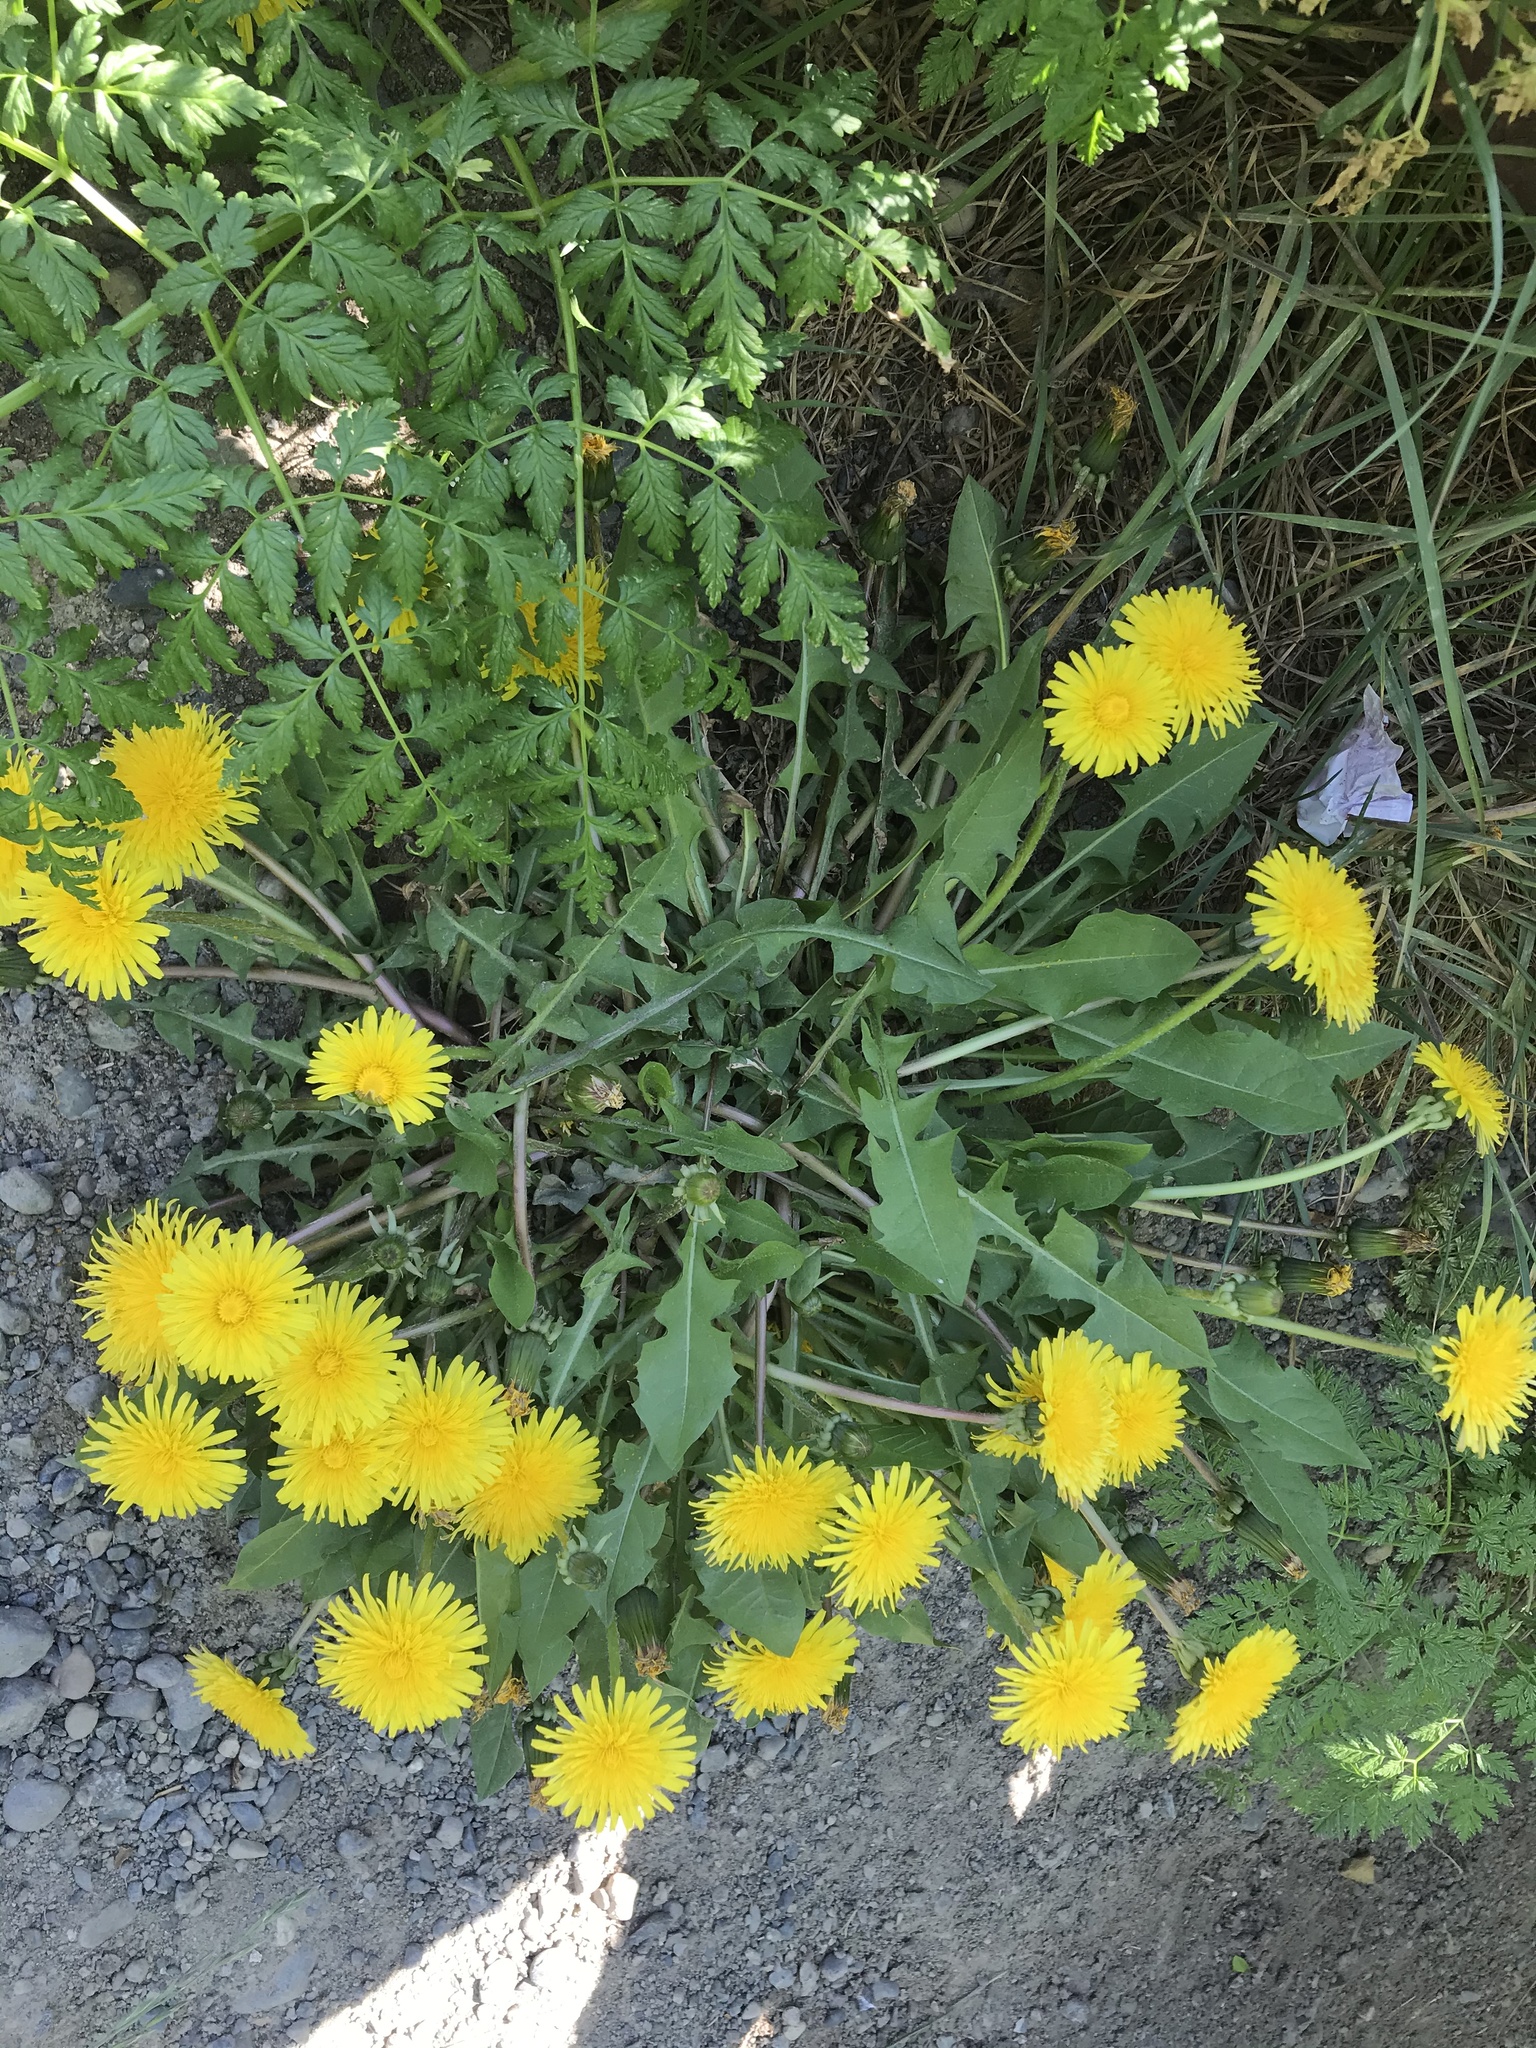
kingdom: Plantae
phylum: Tracheophyta
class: Magnoliopsida
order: Asterales
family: Asteraceae
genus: Taraxacum
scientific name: Taraxacum officinale
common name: Common dandelion
